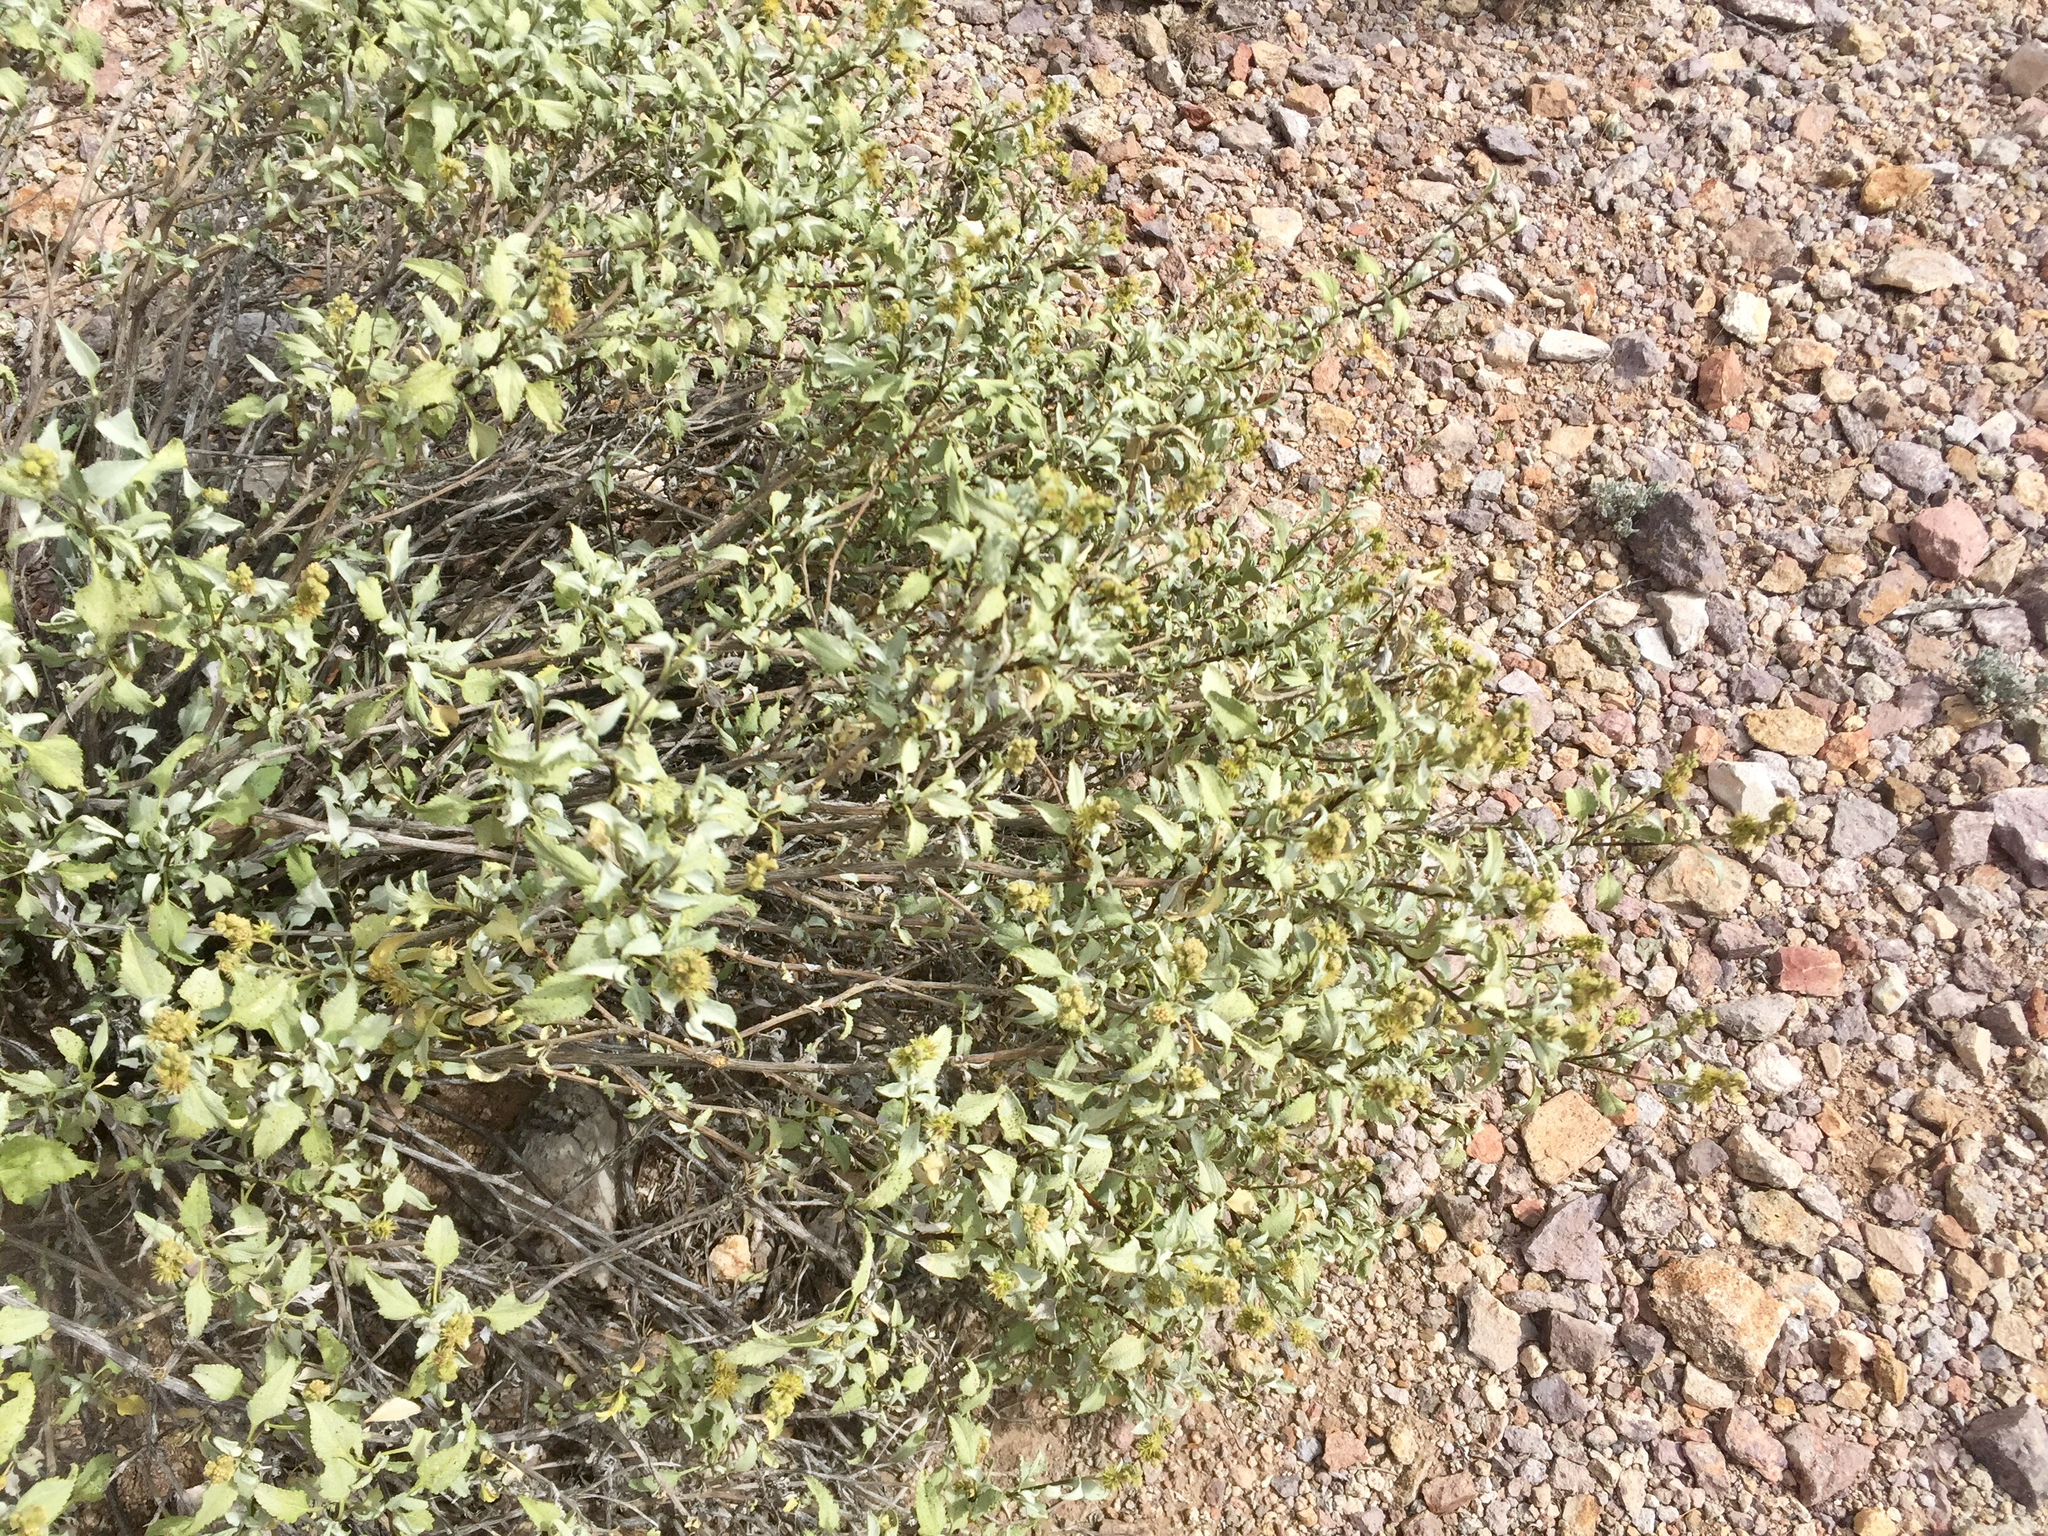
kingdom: Plantae
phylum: Tracheophyta
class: Magnoliopsida
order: Asterales
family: Asteraceae
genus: Ambrosia
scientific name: Ambrosia deltoidea
